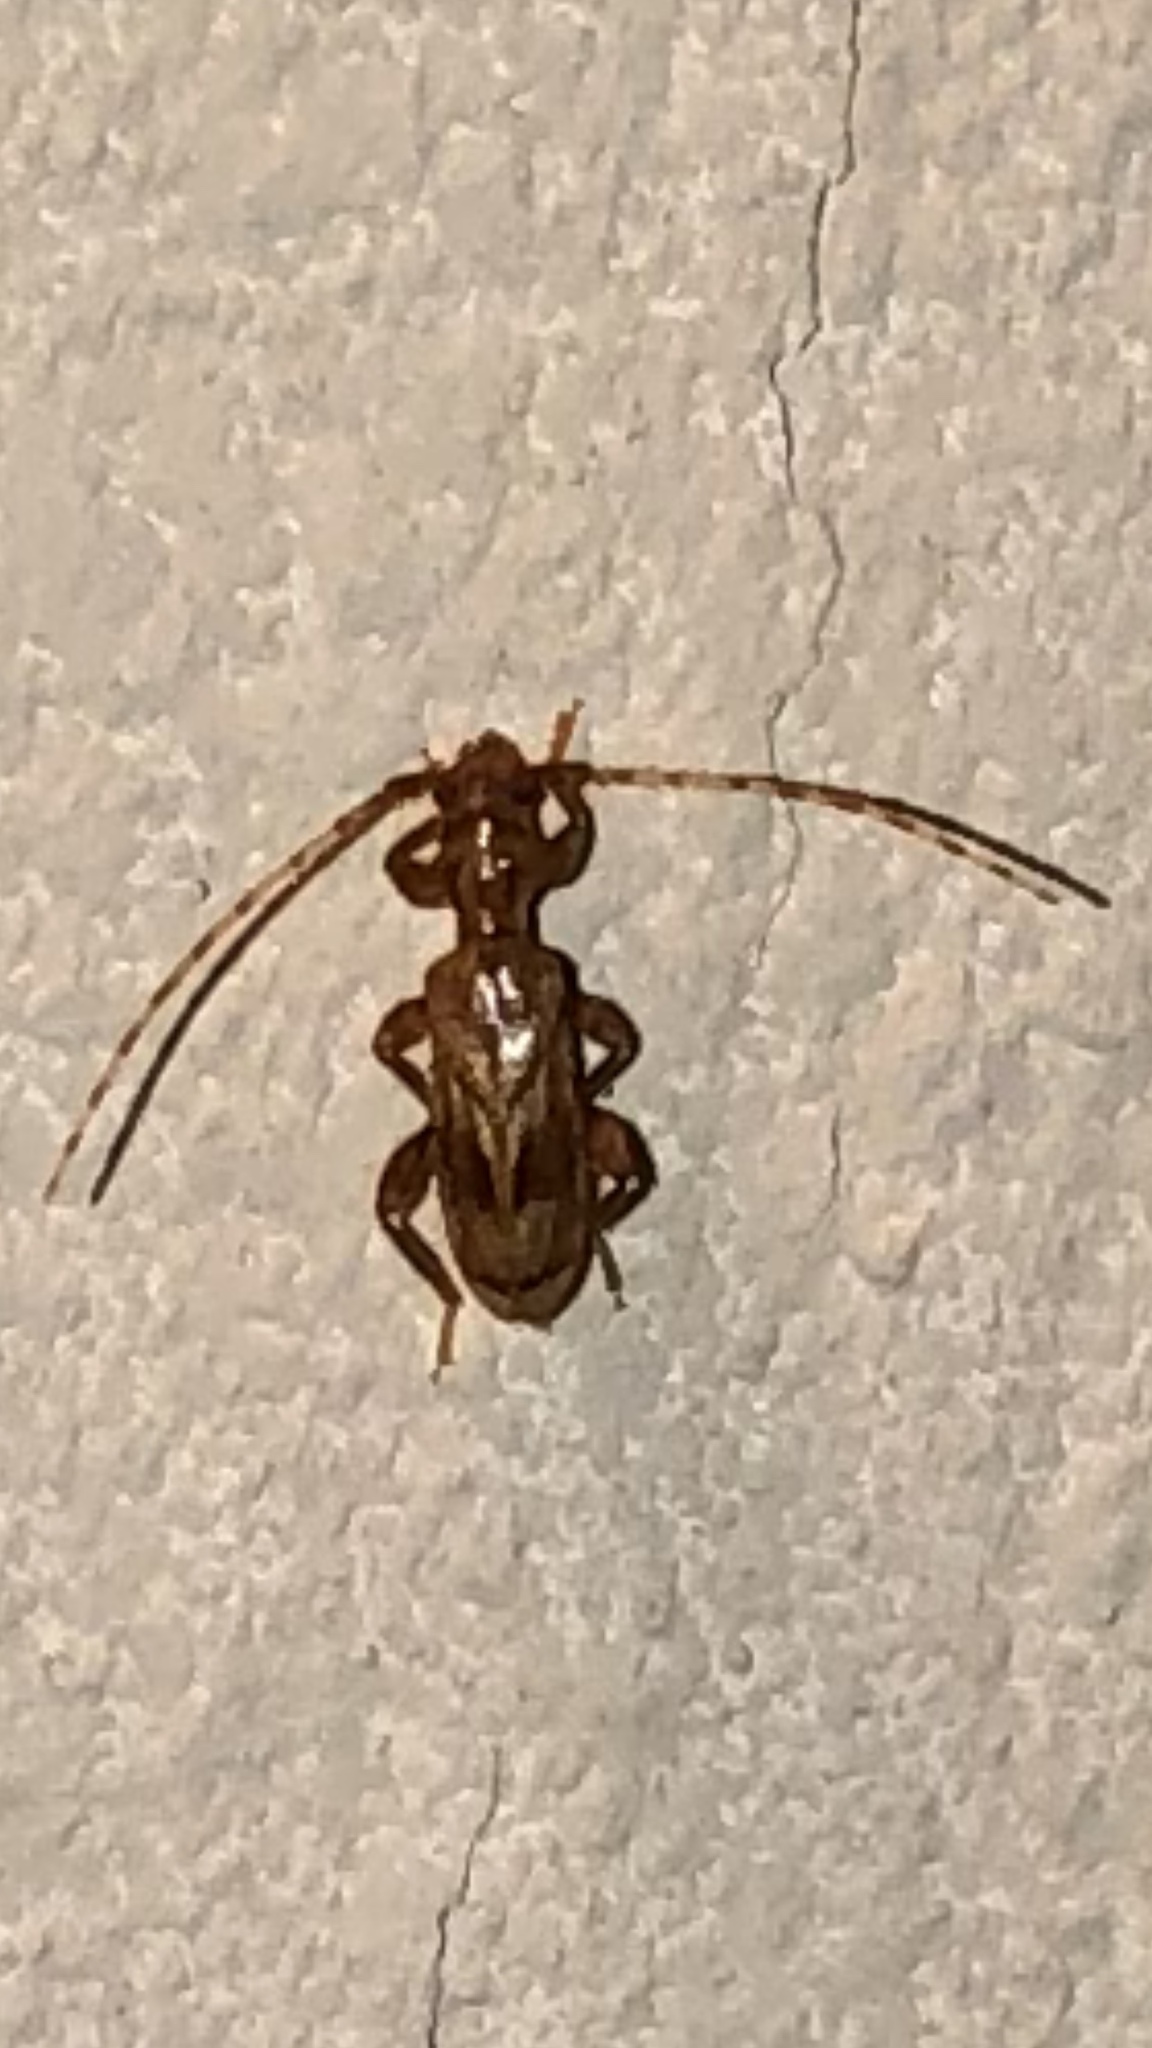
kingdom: Animalia
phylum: Arthropoda
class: Insecta
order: Coleoptera
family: Cerambycidae
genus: Obrium
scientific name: Obrium maculatum
